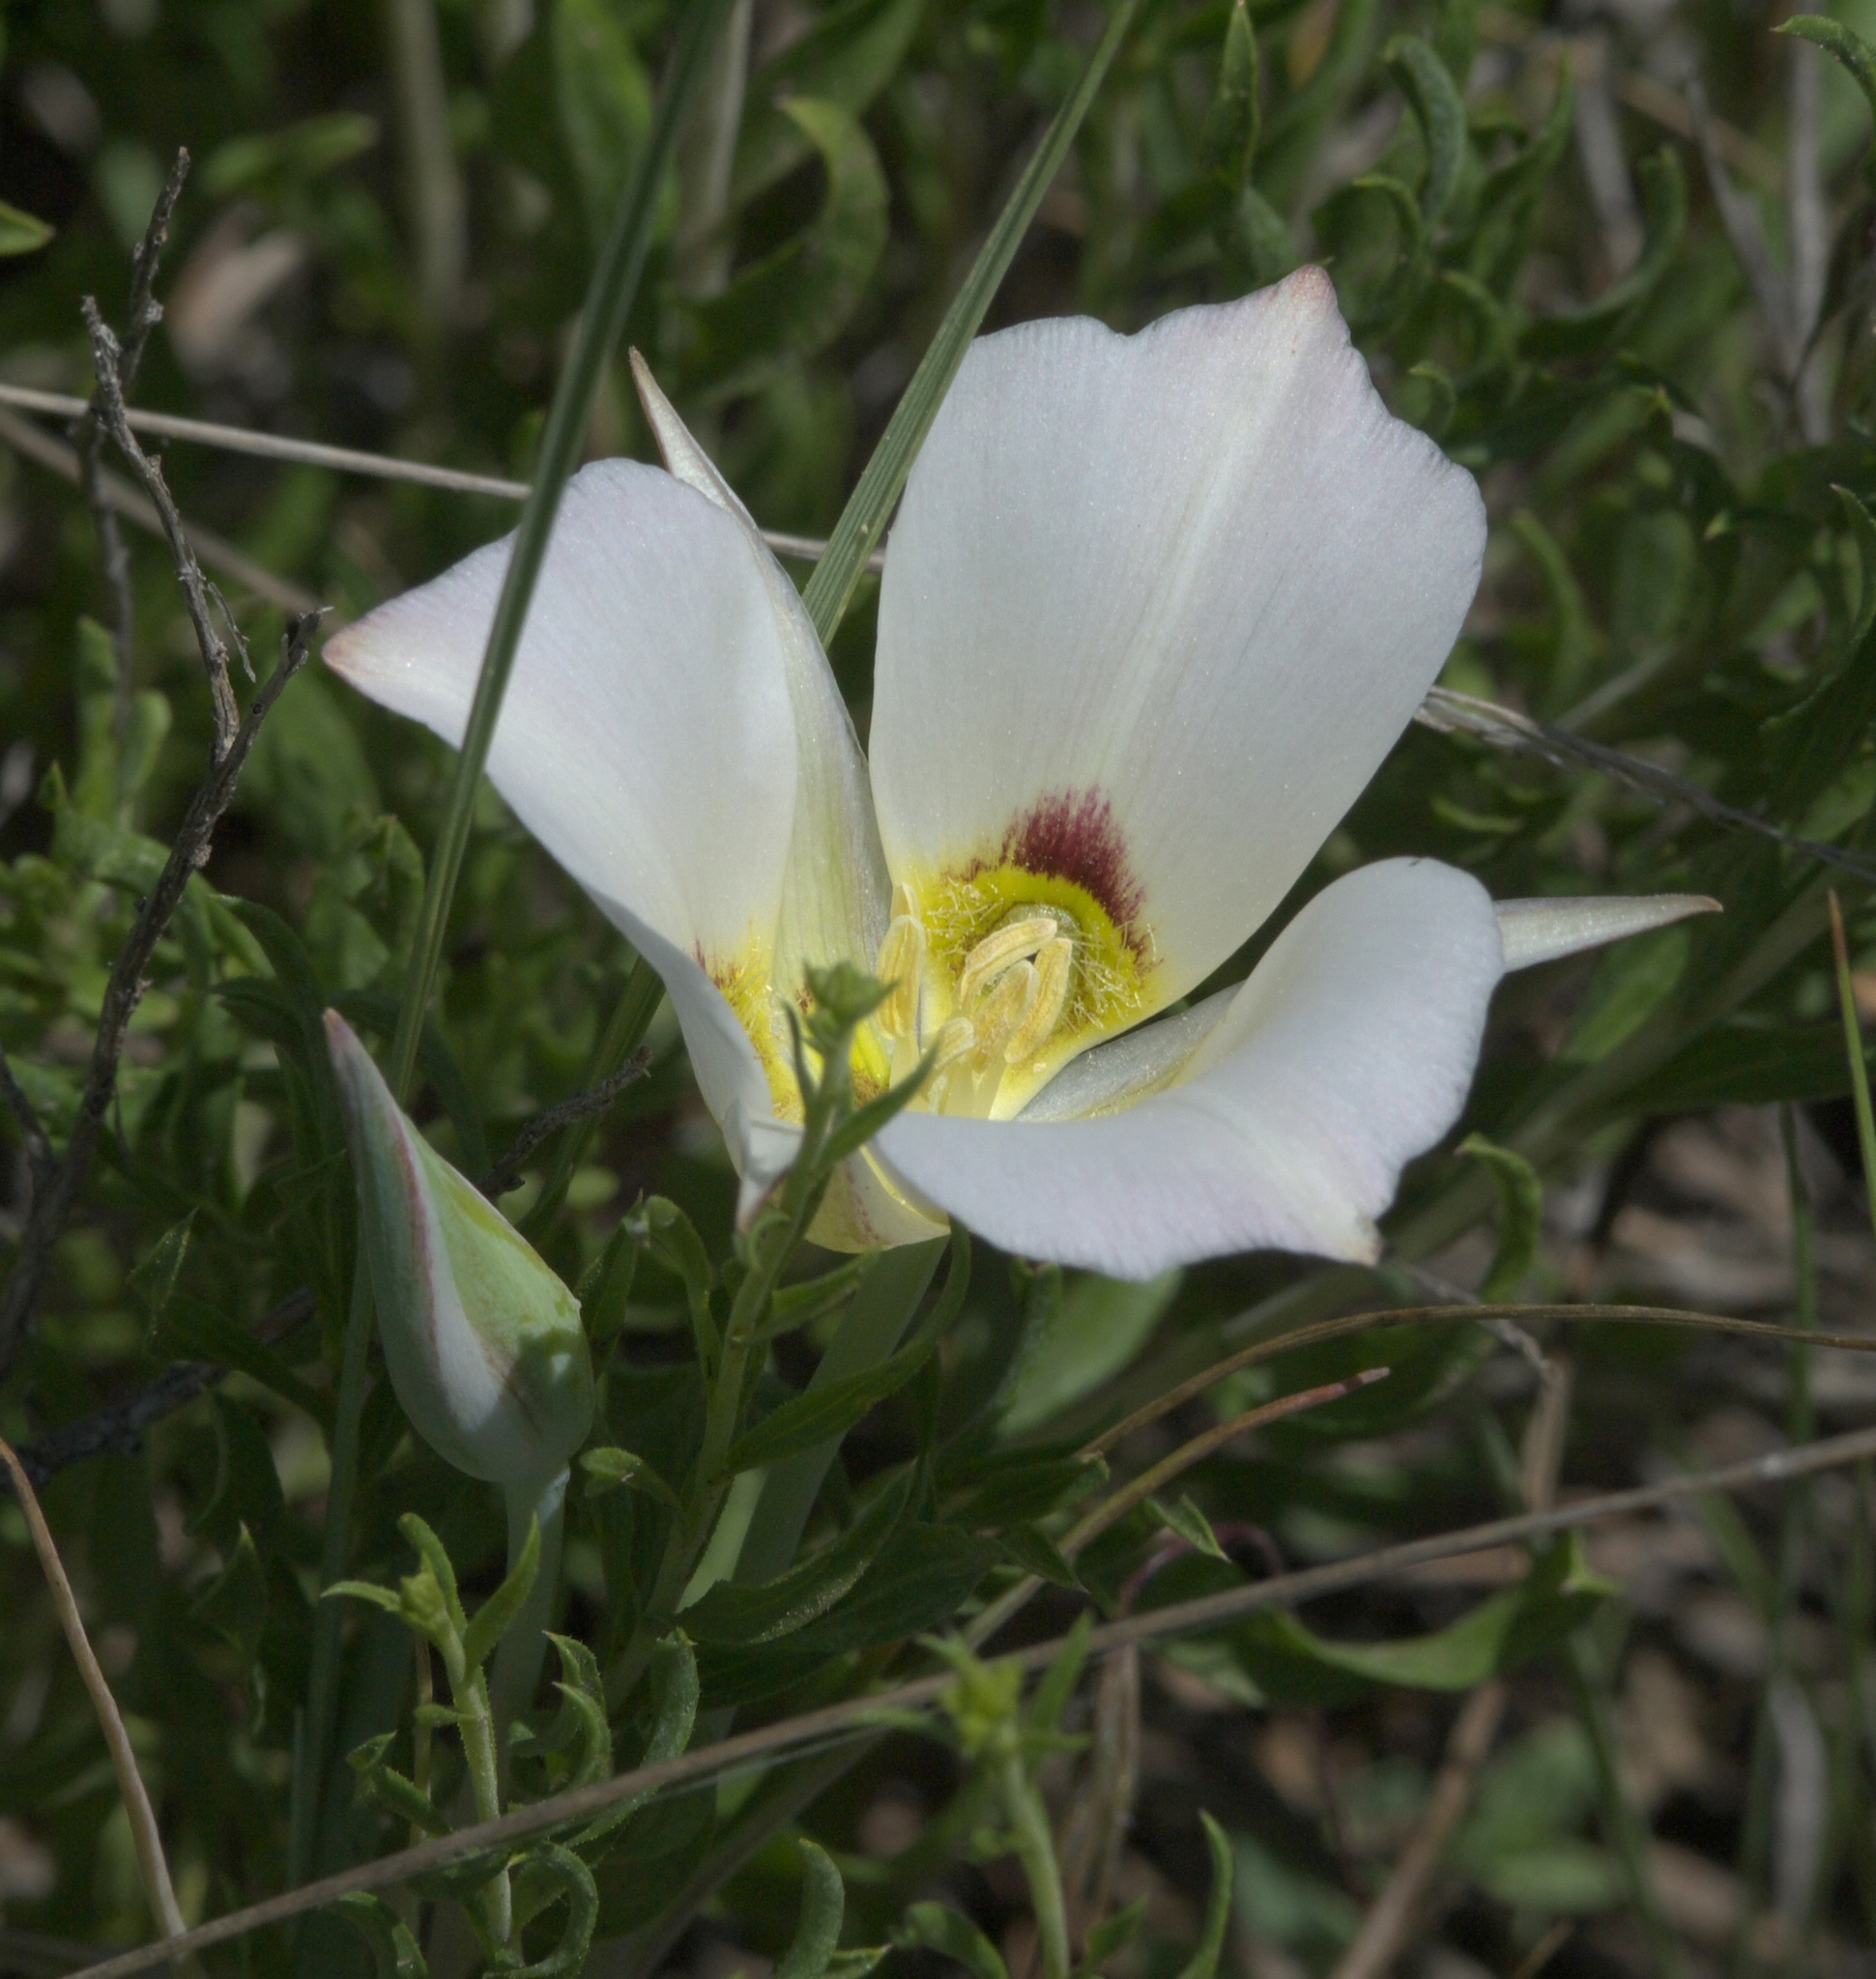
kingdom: Plantae
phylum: Tracheophyta
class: Liliopsida
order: Liliales
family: Liliaceae
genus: Calochortus
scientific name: Calochortus nuttallii
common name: Sego-lily
